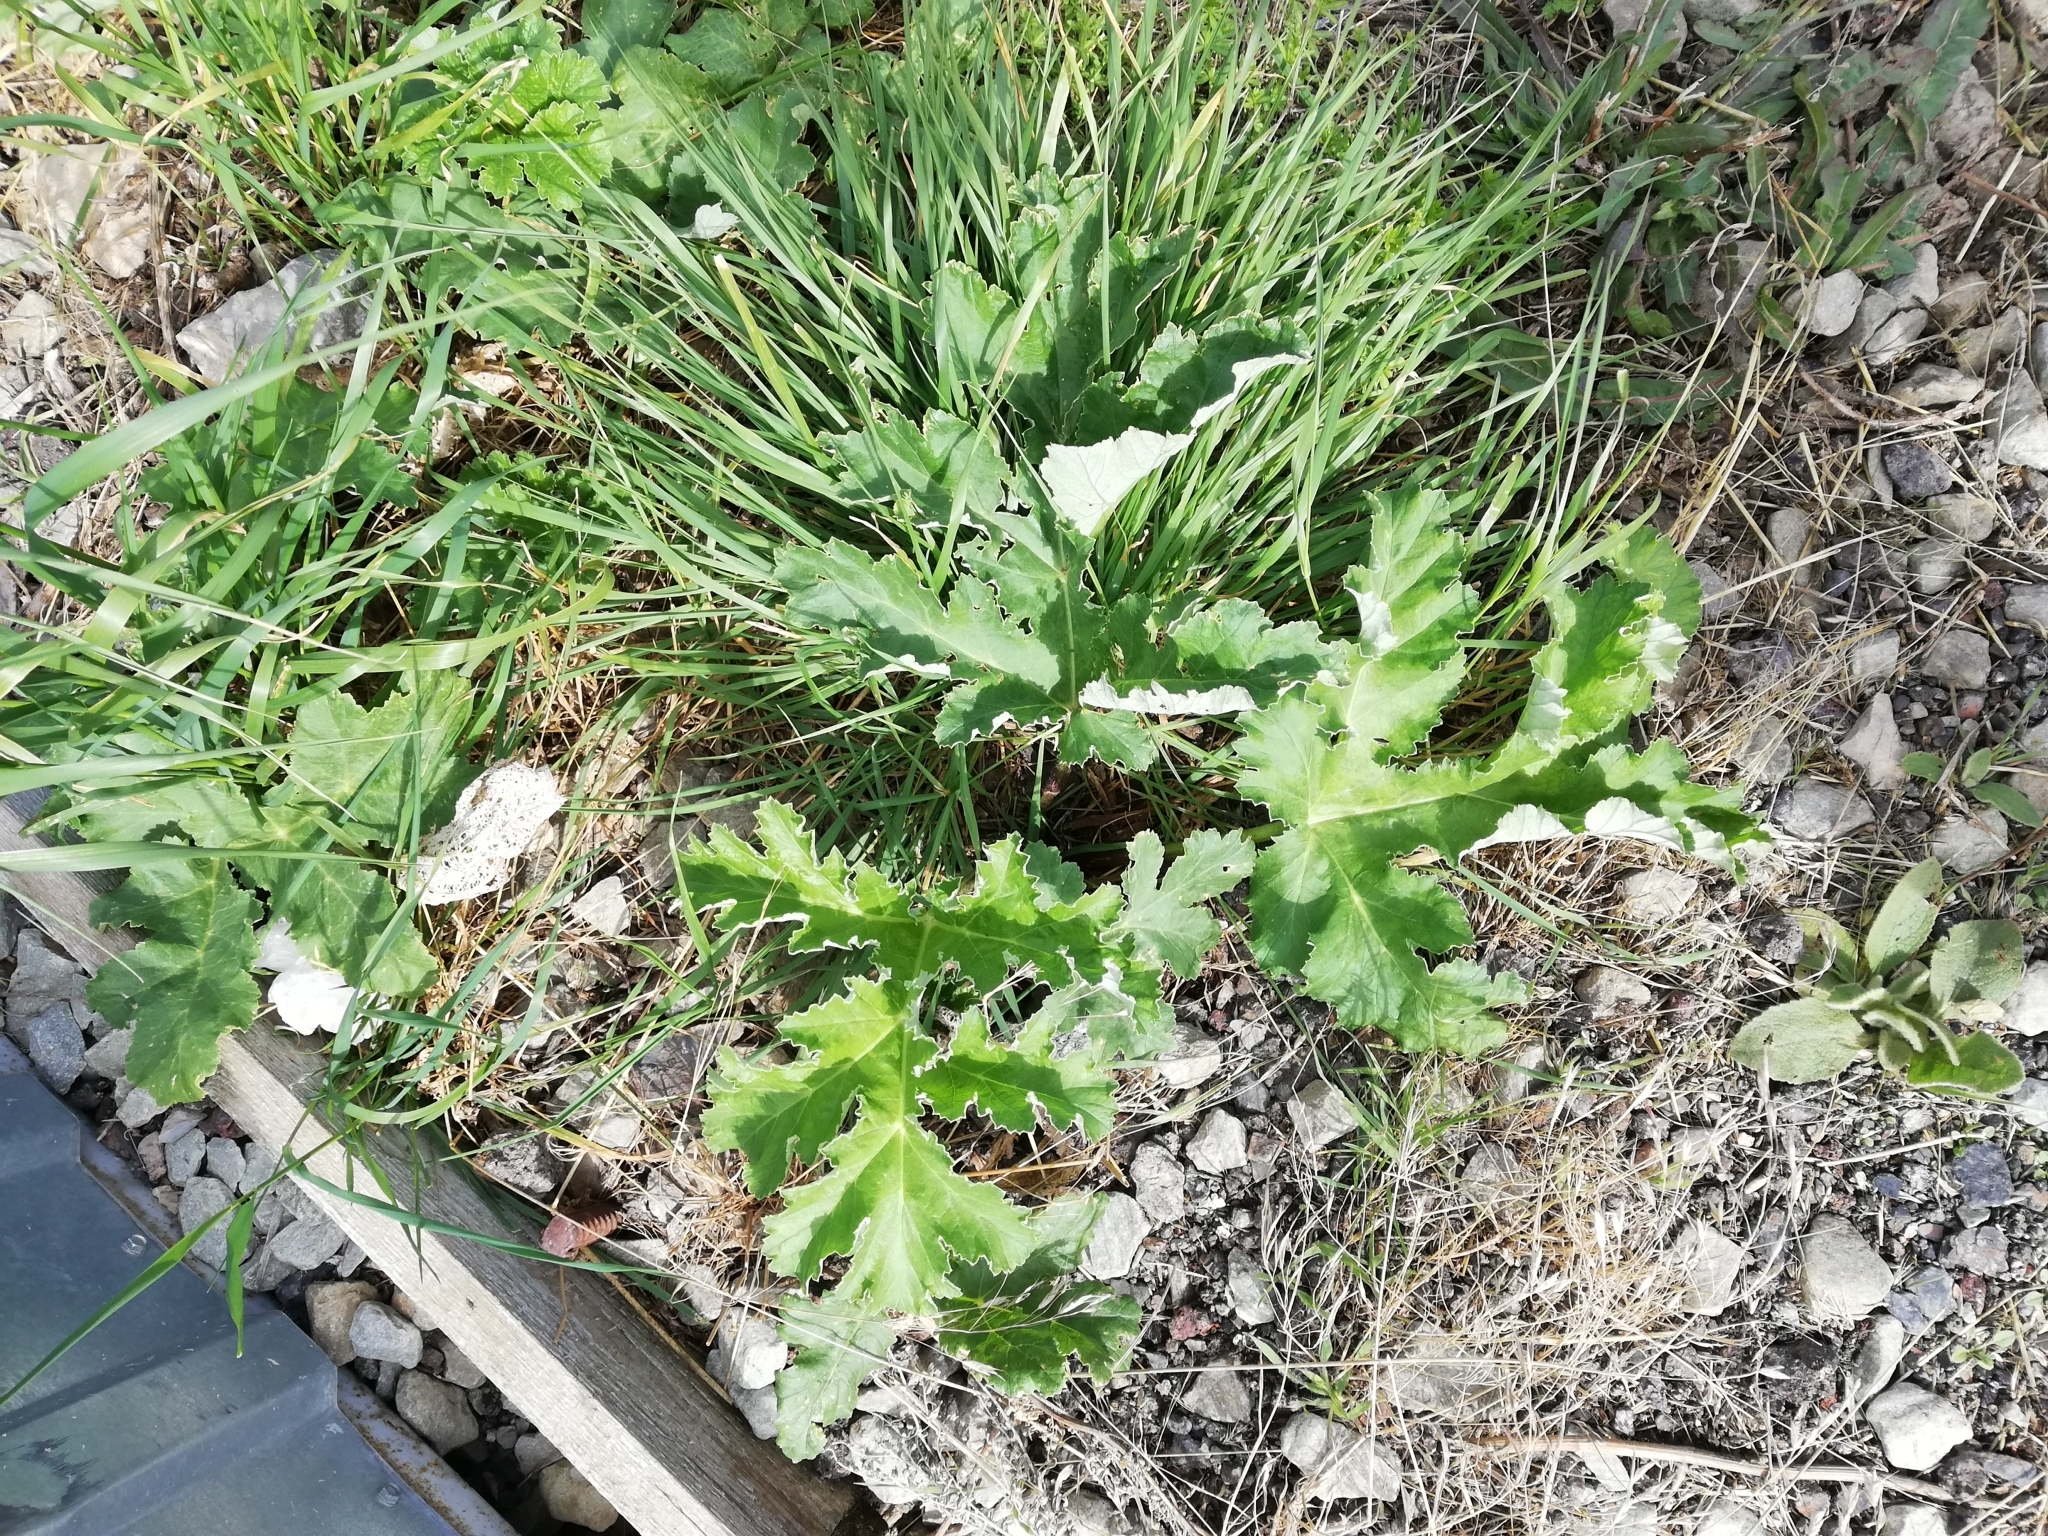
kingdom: Plantae
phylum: Tracheophyta
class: Magnoliopsida
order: Apiales
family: Apiaceae
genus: Heracleum
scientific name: Heracleum stevenii
